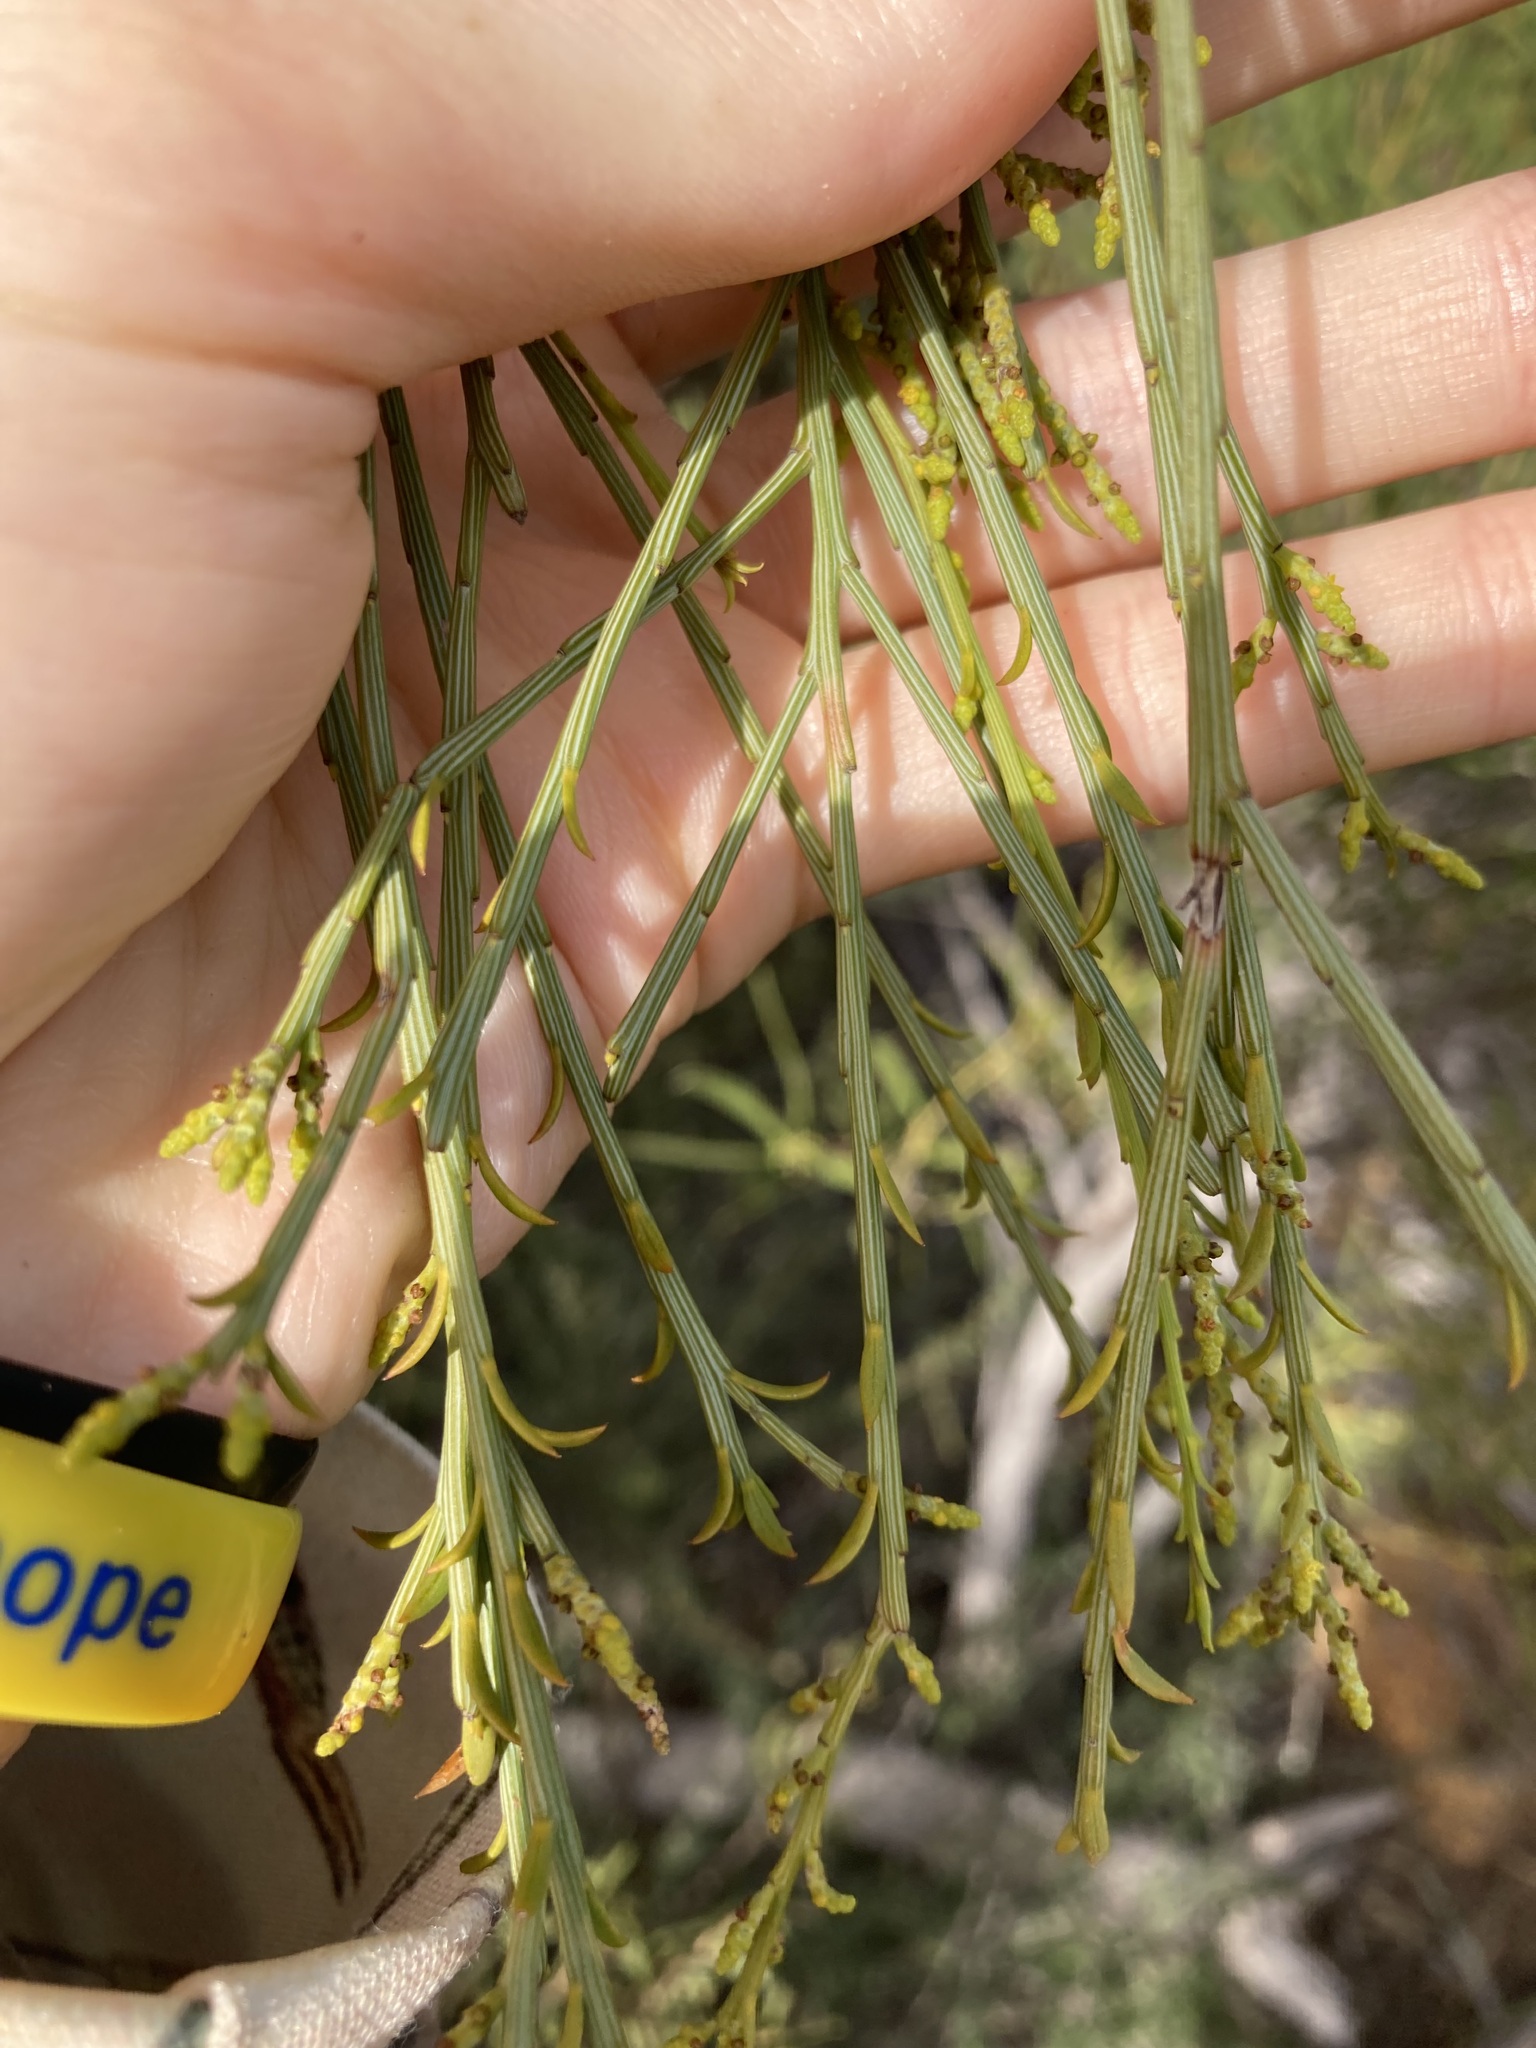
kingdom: Plantae
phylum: Tracheophyta
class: Magnoliopsida
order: Santalales
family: Santalaceae
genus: Exocarpos
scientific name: Exocarpos sparteus
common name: Broom ballart
